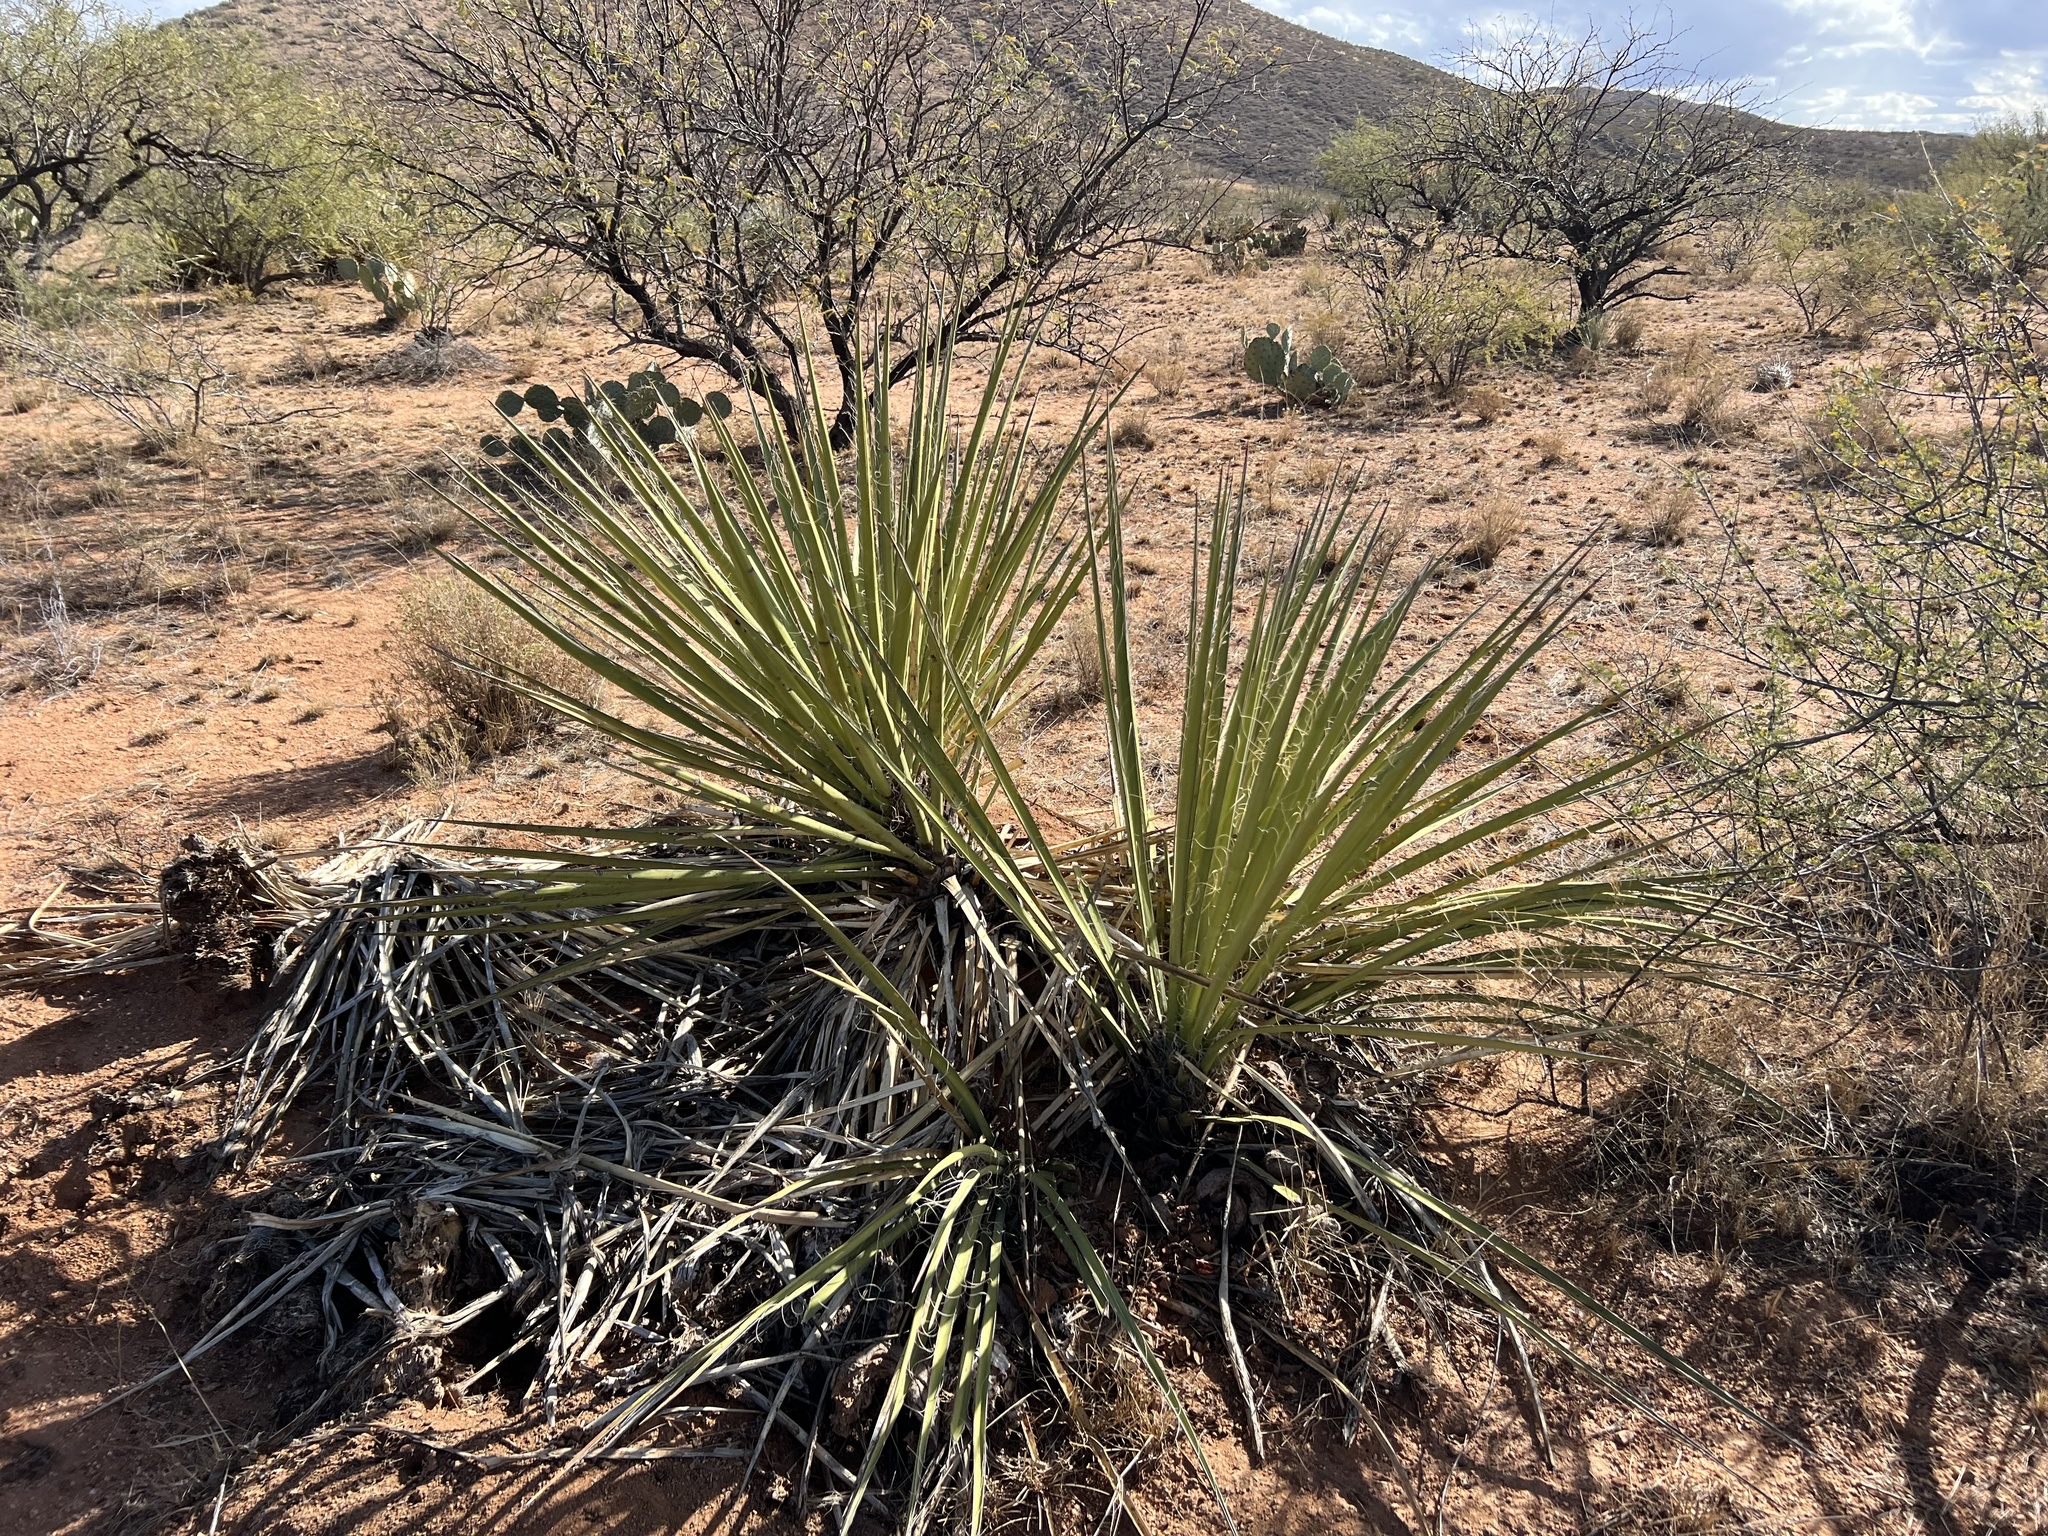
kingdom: Plantae
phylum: Tracheophyta
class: Liliopsida
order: Asparagales
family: Asparagaceae
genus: Yucca
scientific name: Yucca baccata
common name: Banana yucca
